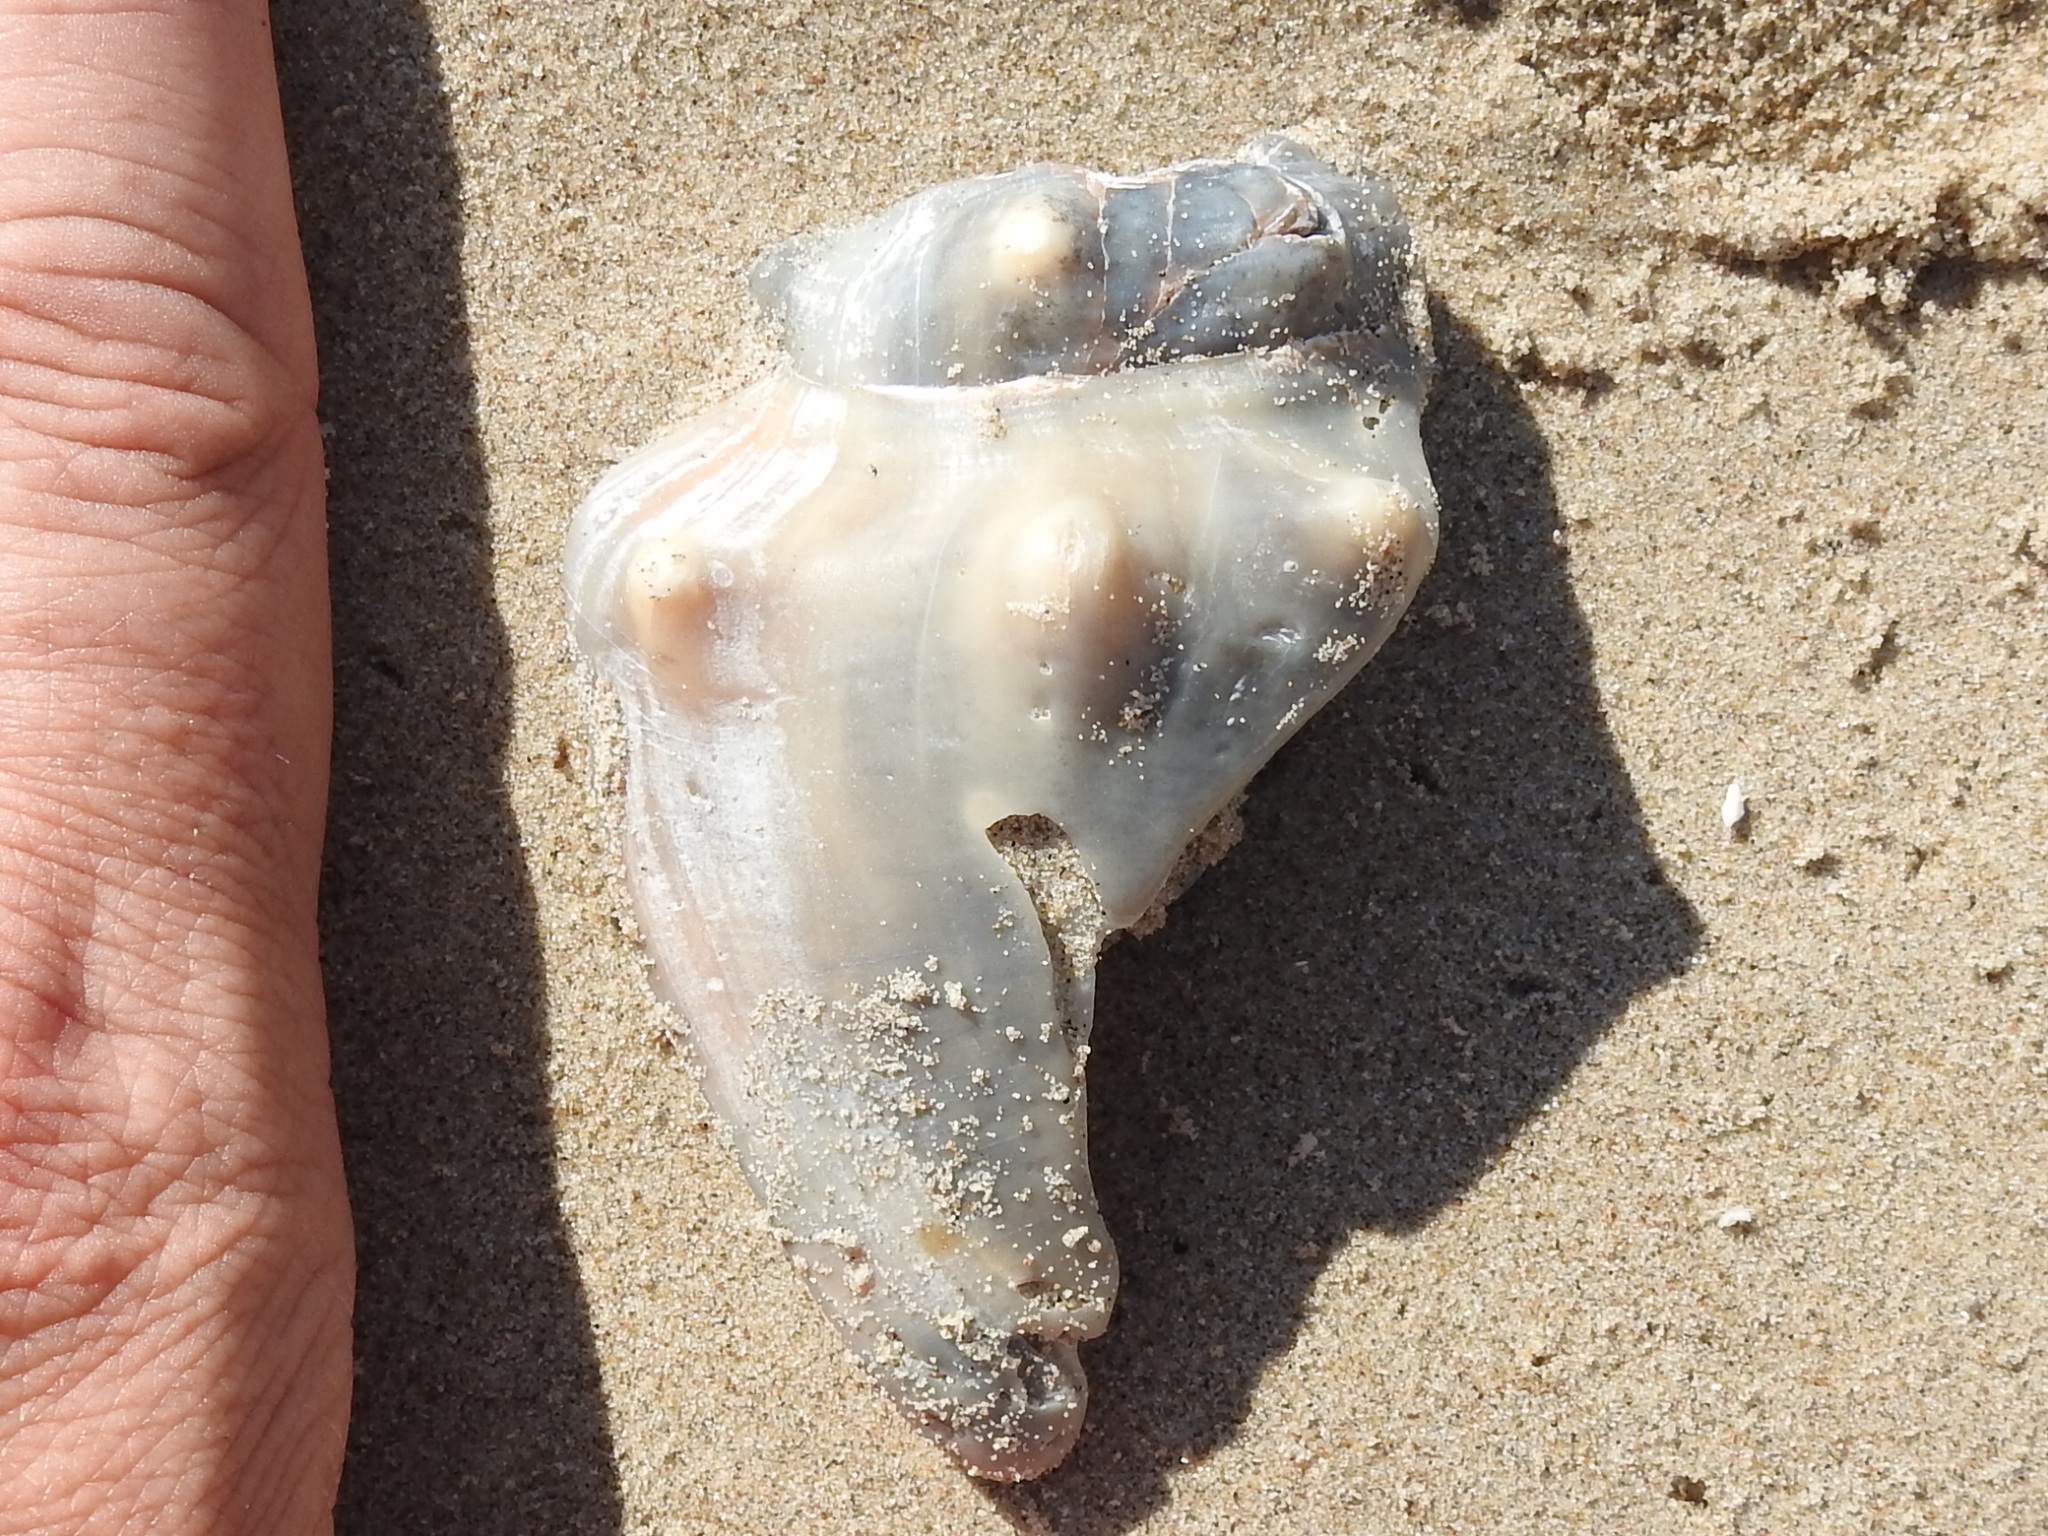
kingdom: Animalia
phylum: Mollusca
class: Gastropoda
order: Littorinimorpha
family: Strombidae
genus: Strombus
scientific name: Strombus alatus
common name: Florida fighting conch
